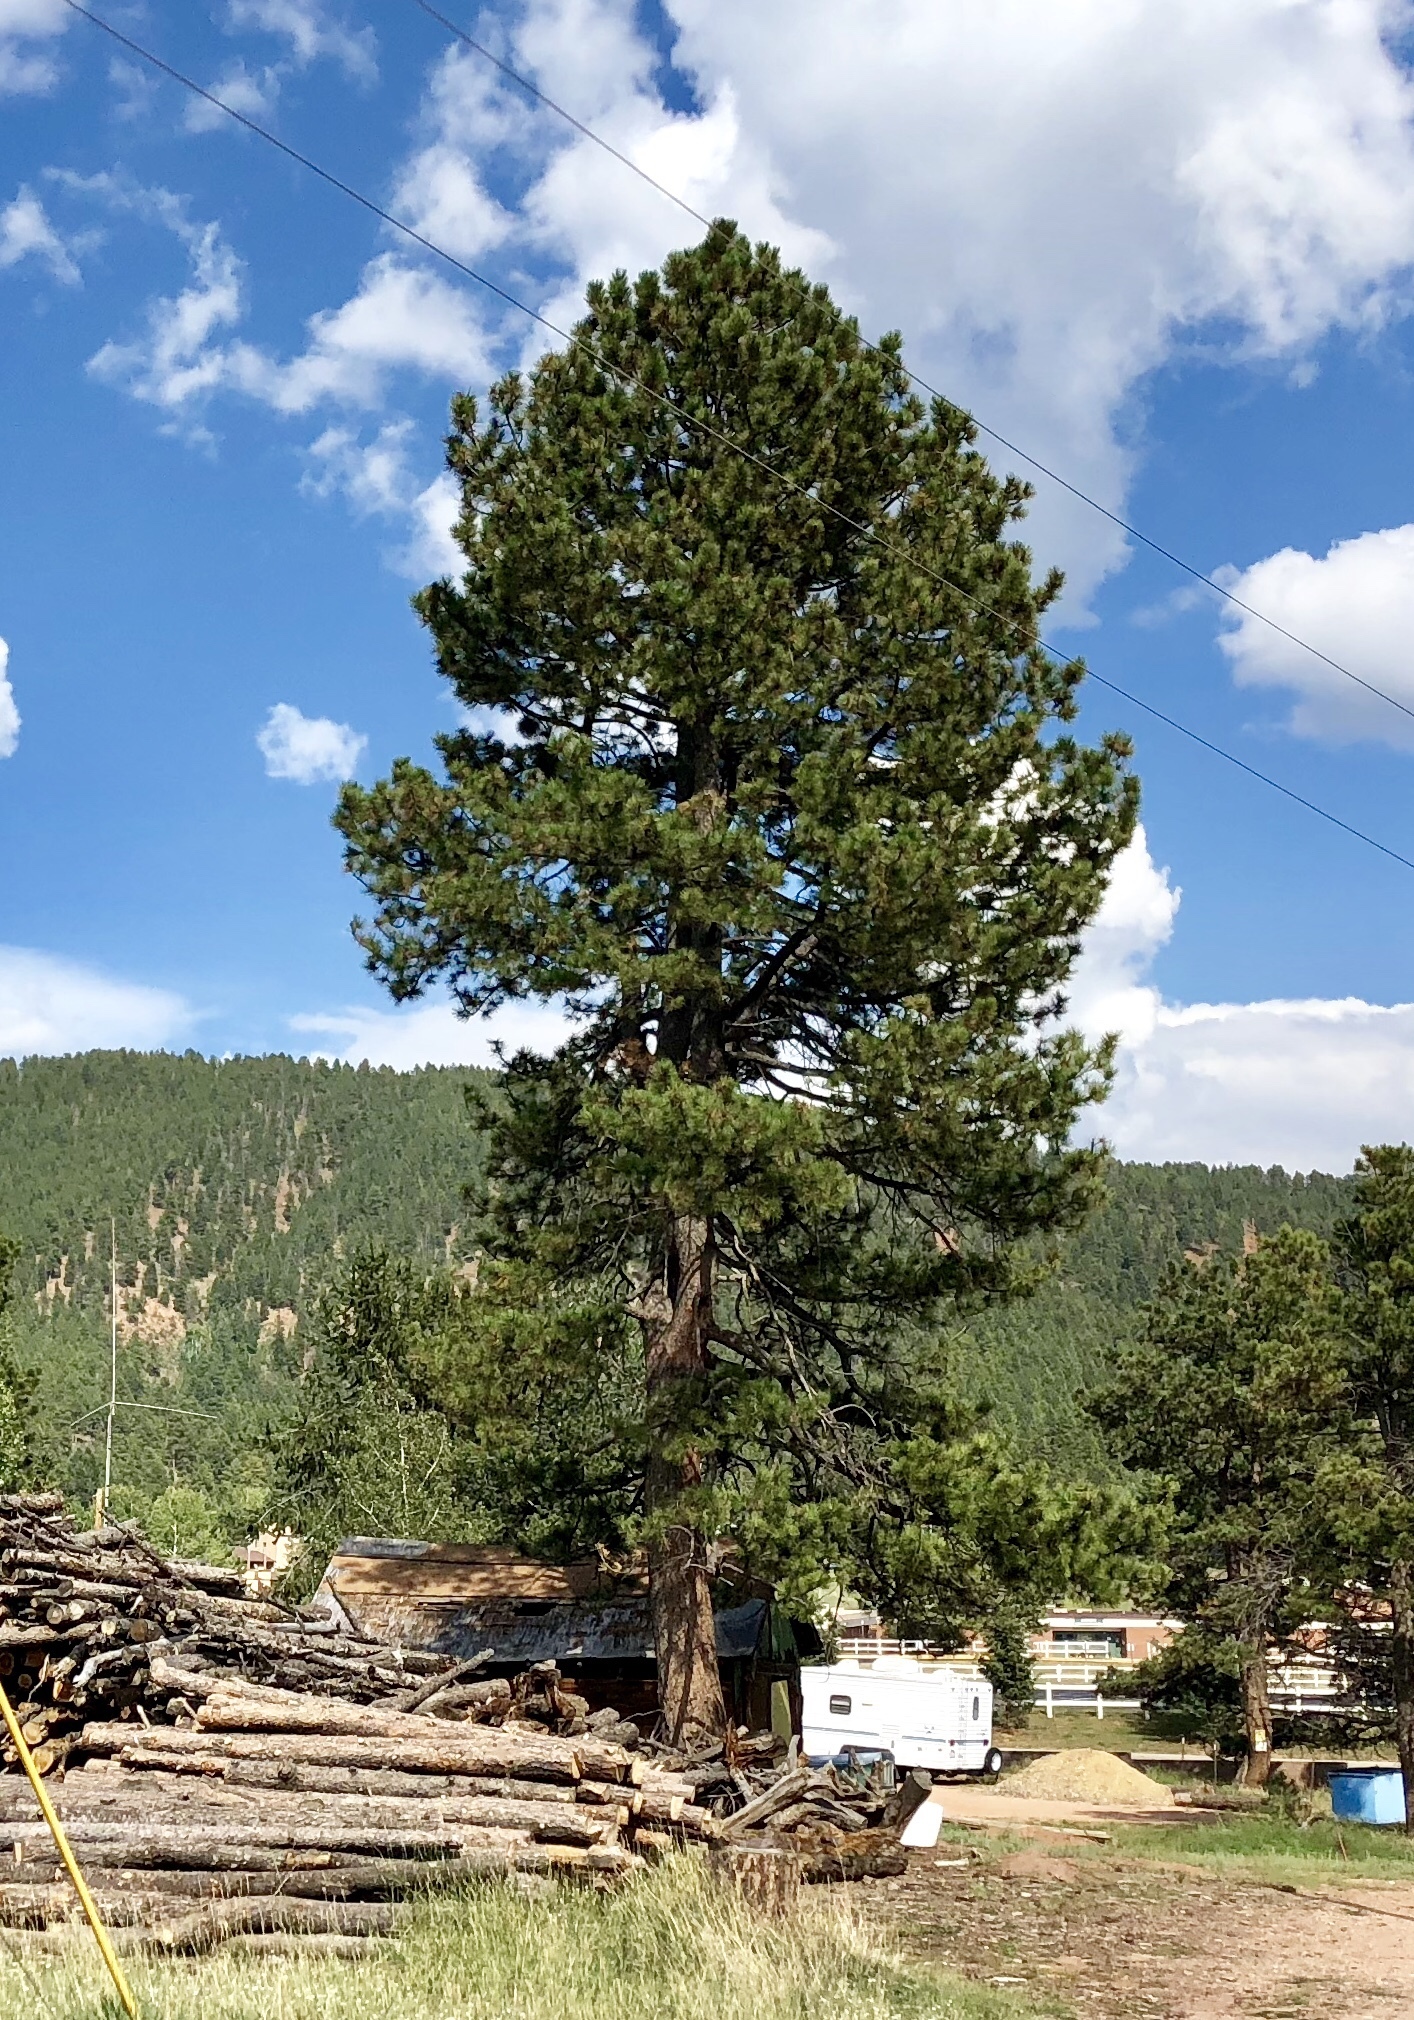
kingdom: Plantae
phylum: Tracheophyta
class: Pinopsida
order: Pinales
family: Pinaceae
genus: Pinus
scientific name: Pinus ponderosa
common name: Western yellow-pine
